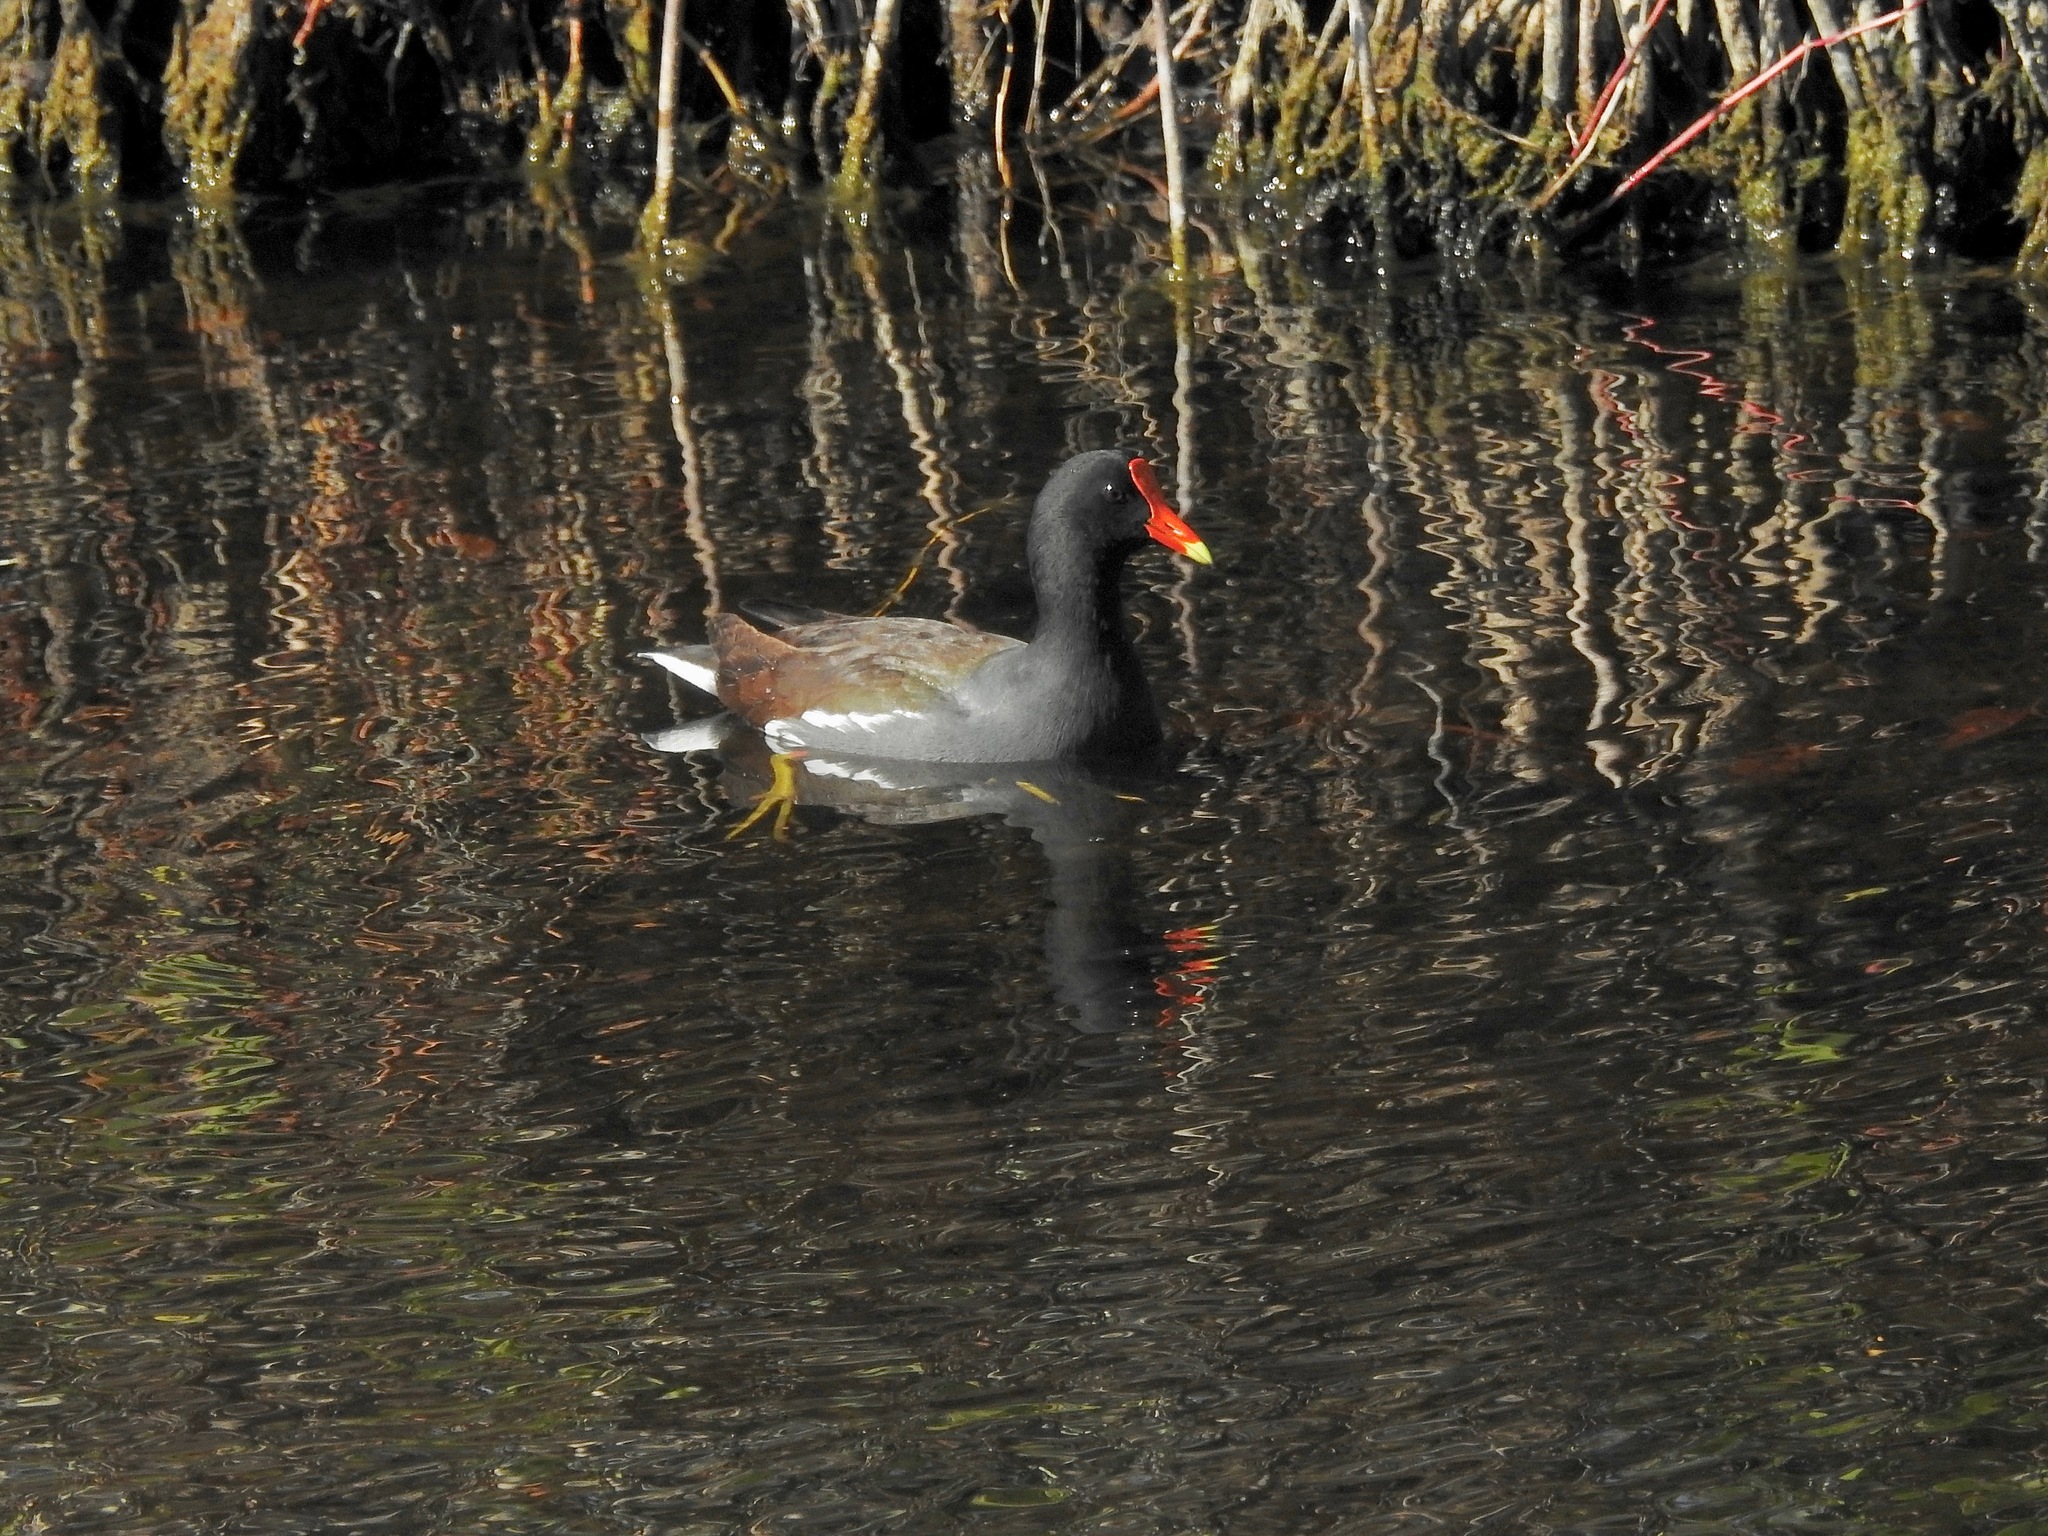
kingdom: Animalia
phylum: Chordata
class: Aves
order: Gruiformes
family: Rallidae
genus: Gallinula
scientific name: Gallinula chloropus
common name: Common moorhen
